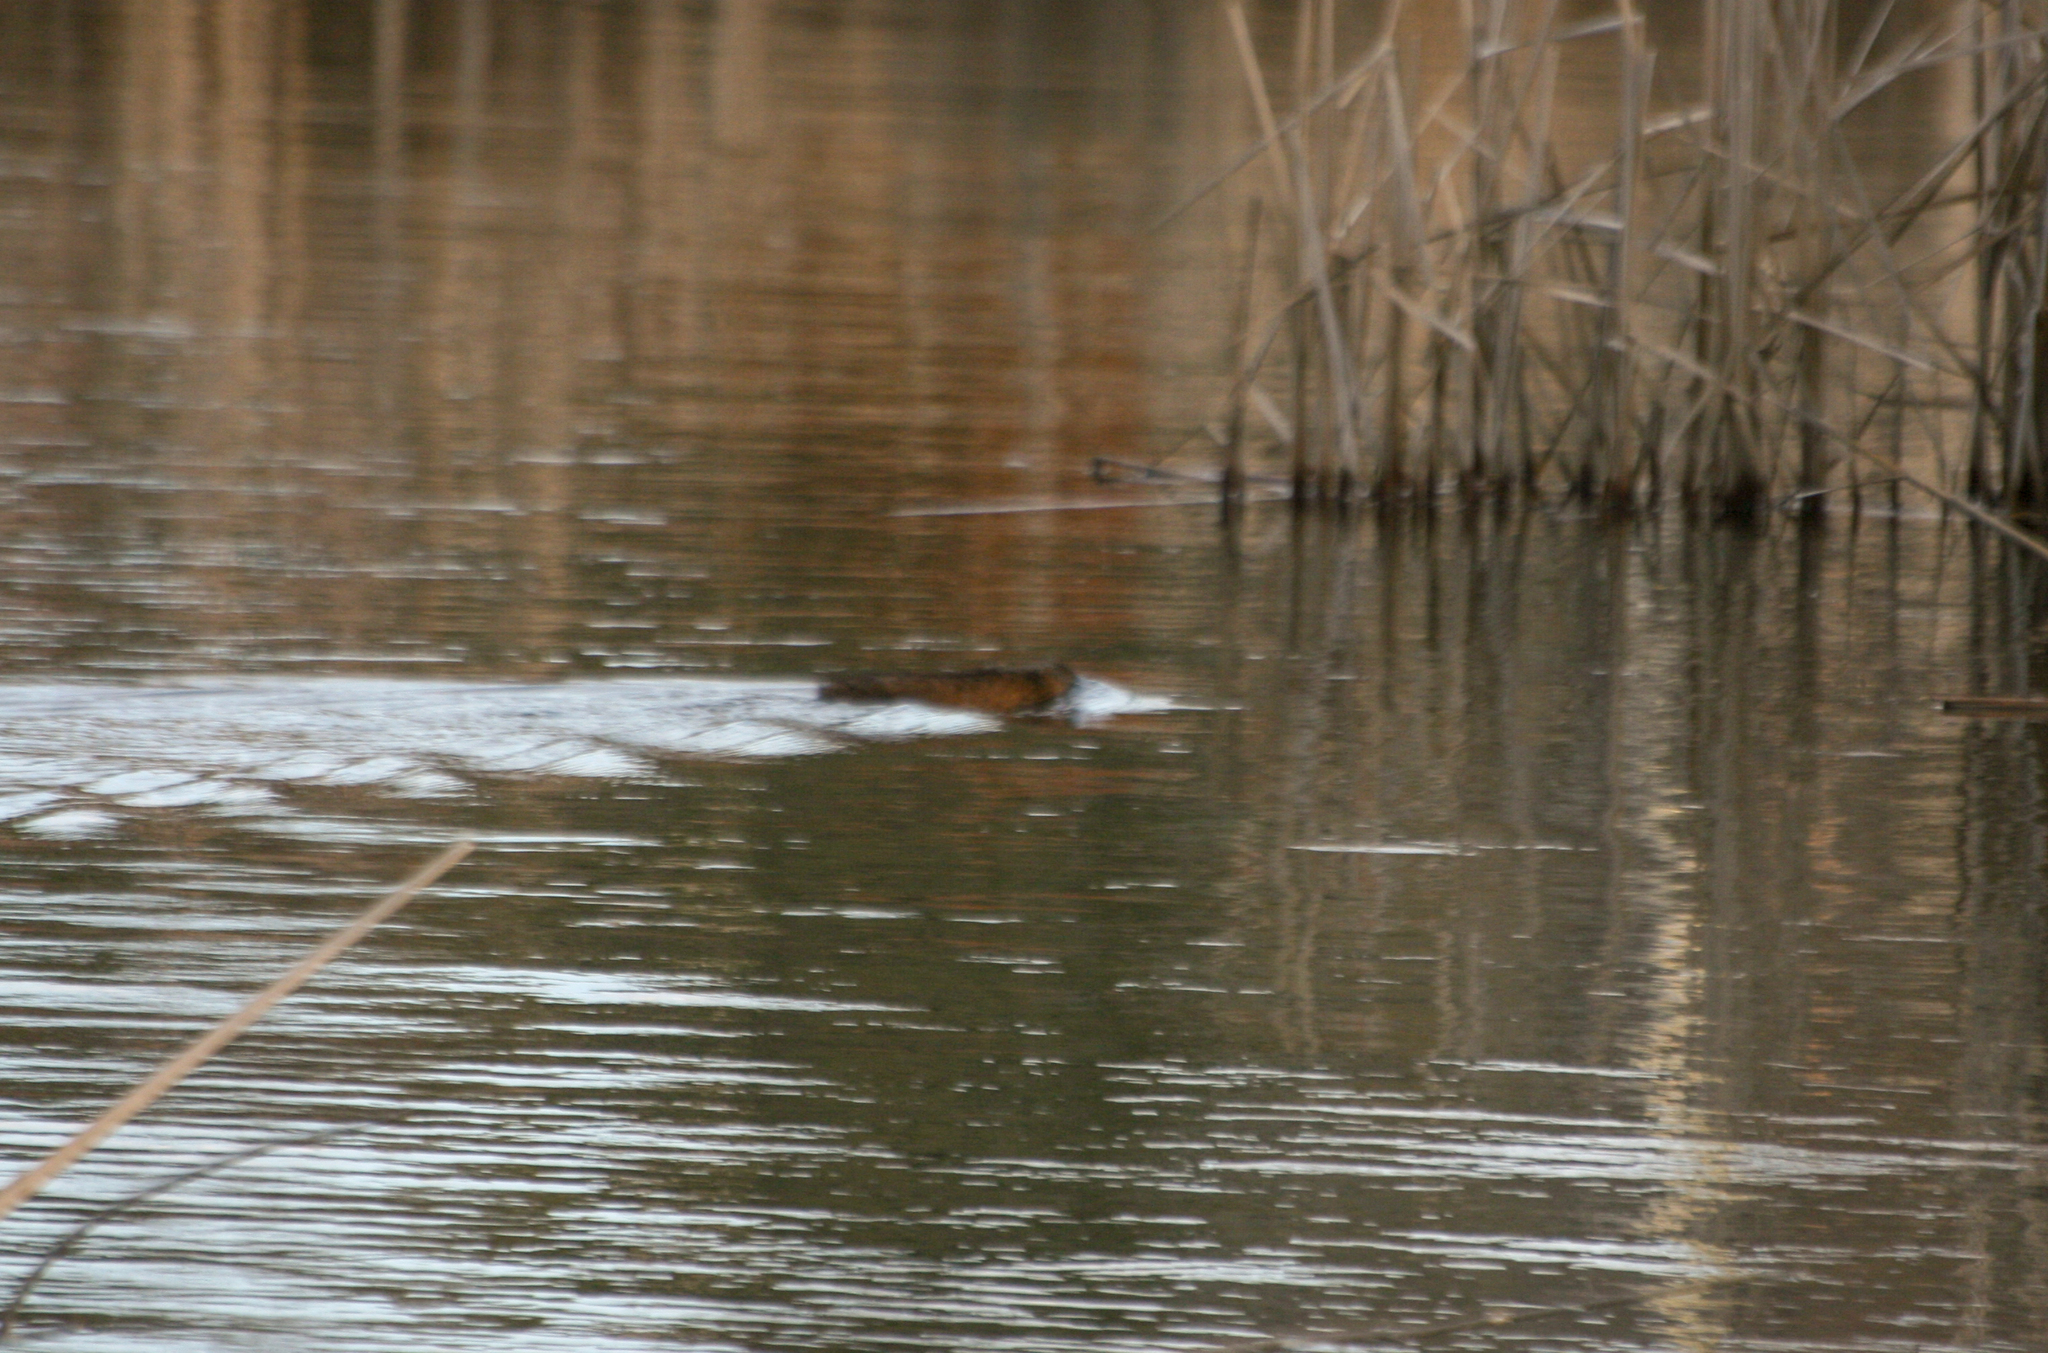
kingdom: Animalia
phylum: Chordata
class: Mammalia
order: Rodentia
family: Cricetidae
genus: Ondatra
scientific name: Ondatra zibethicus
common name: Muskrat
